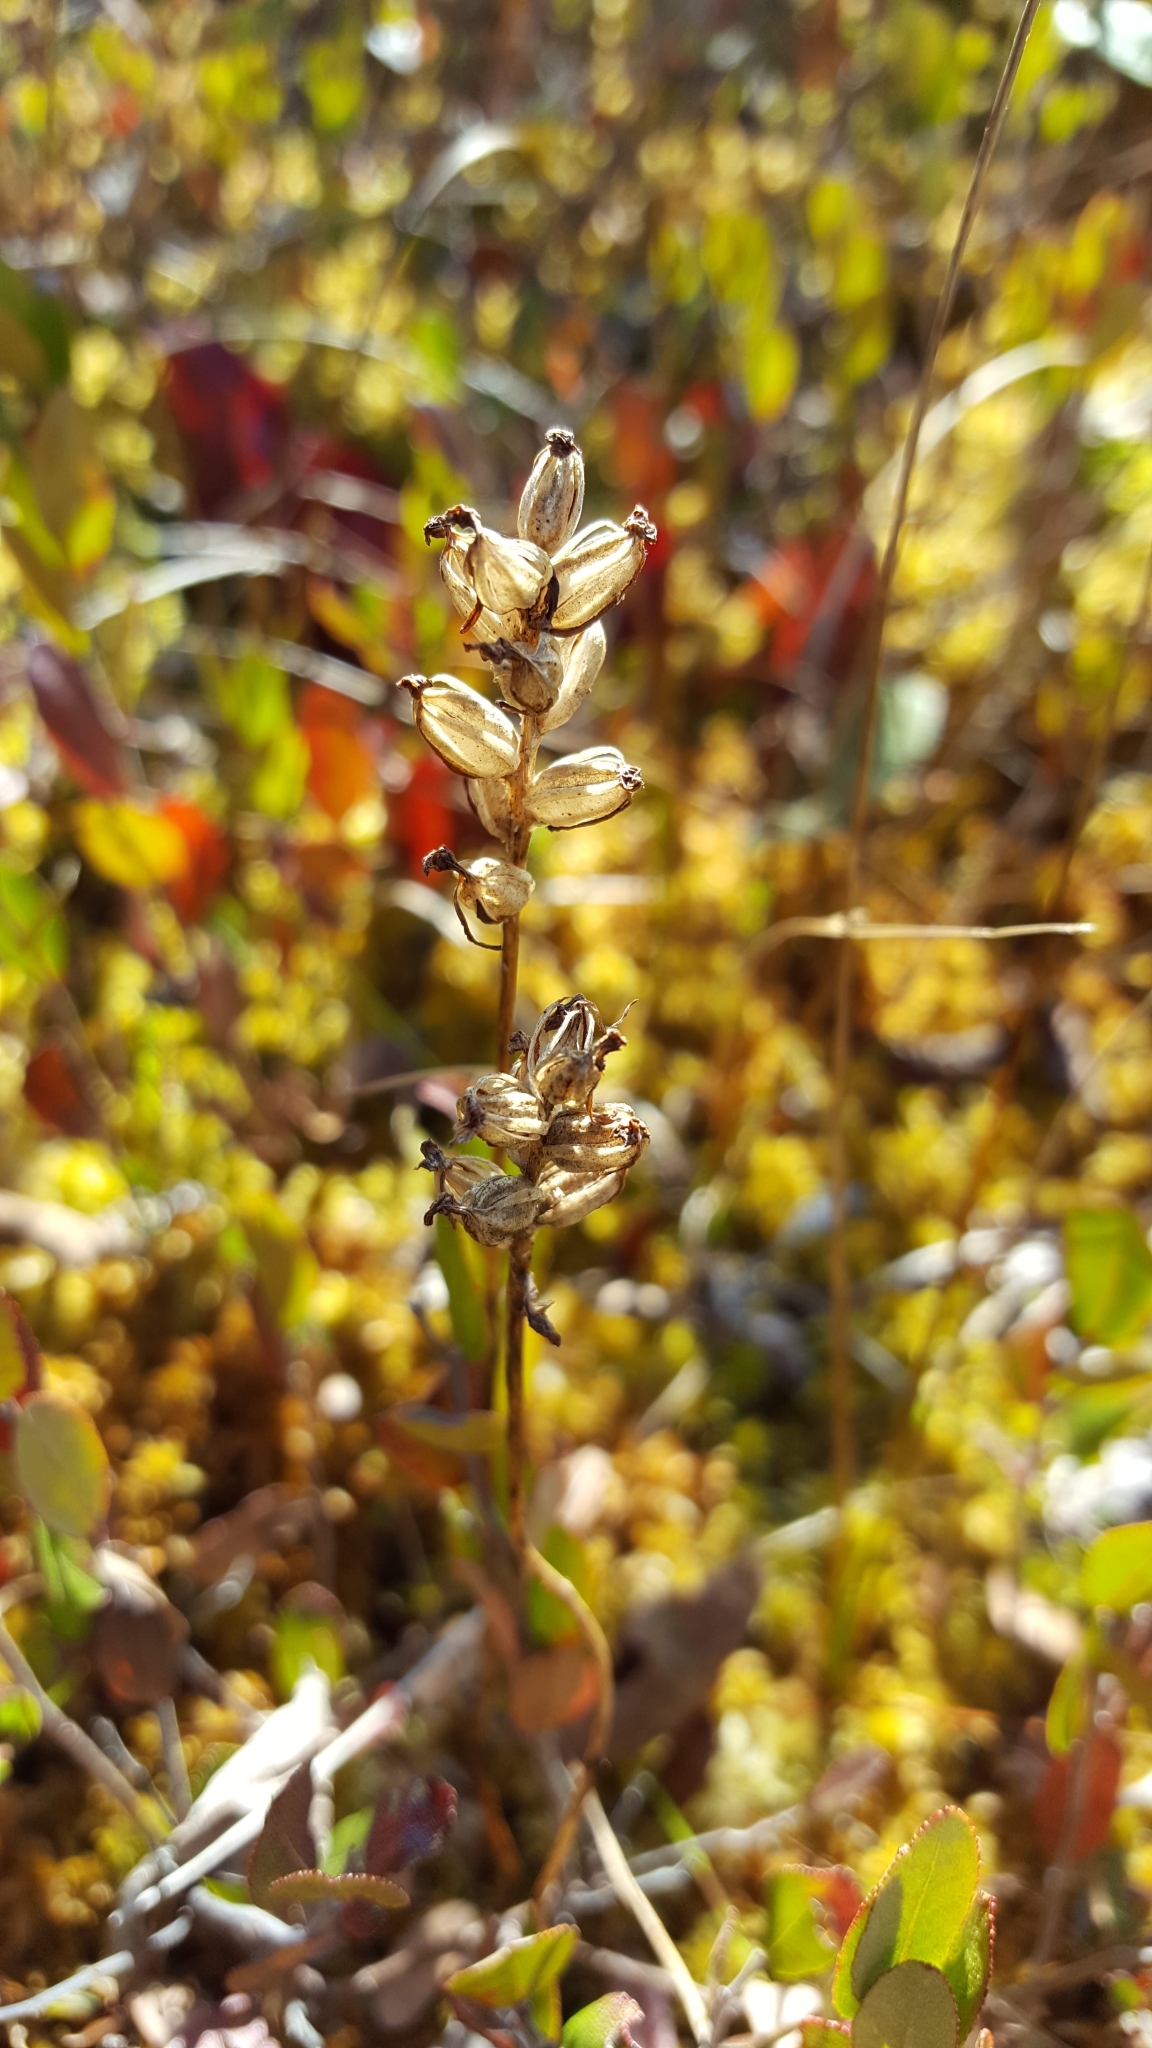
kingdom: Plantae
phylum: Tracheophyta
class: Liliopsida
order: Asparagales
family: Orchidaceae
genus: Platanthera
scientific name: Platanthera clavellata
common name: Club-spur orchid
